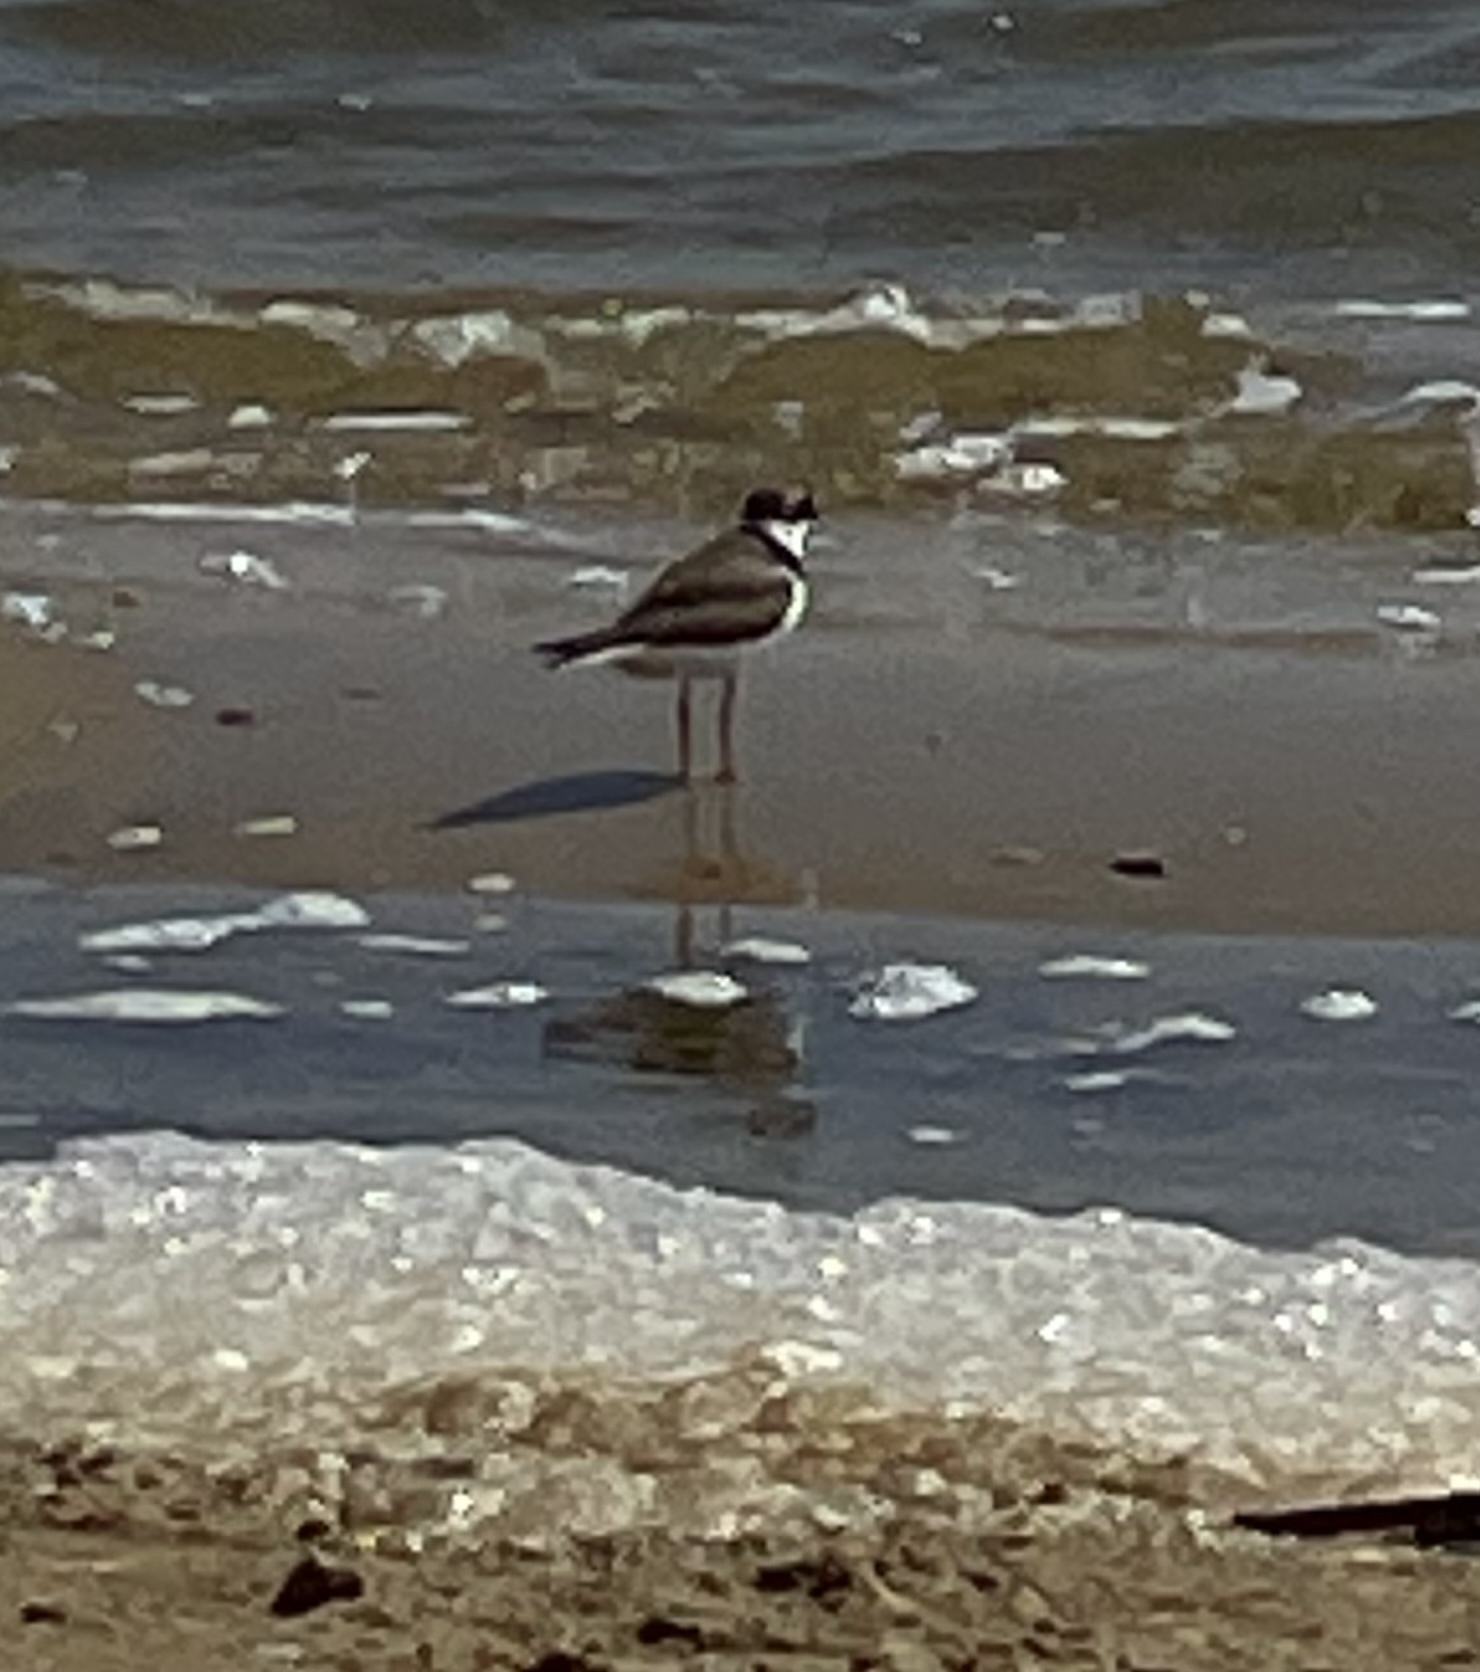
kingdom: Animalia
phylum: Chordata
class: Aves
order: Charadriiformes
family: Charadriidae
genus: Charadrius
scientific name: Charadrius semipalmatus
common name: Semipalmated plover
